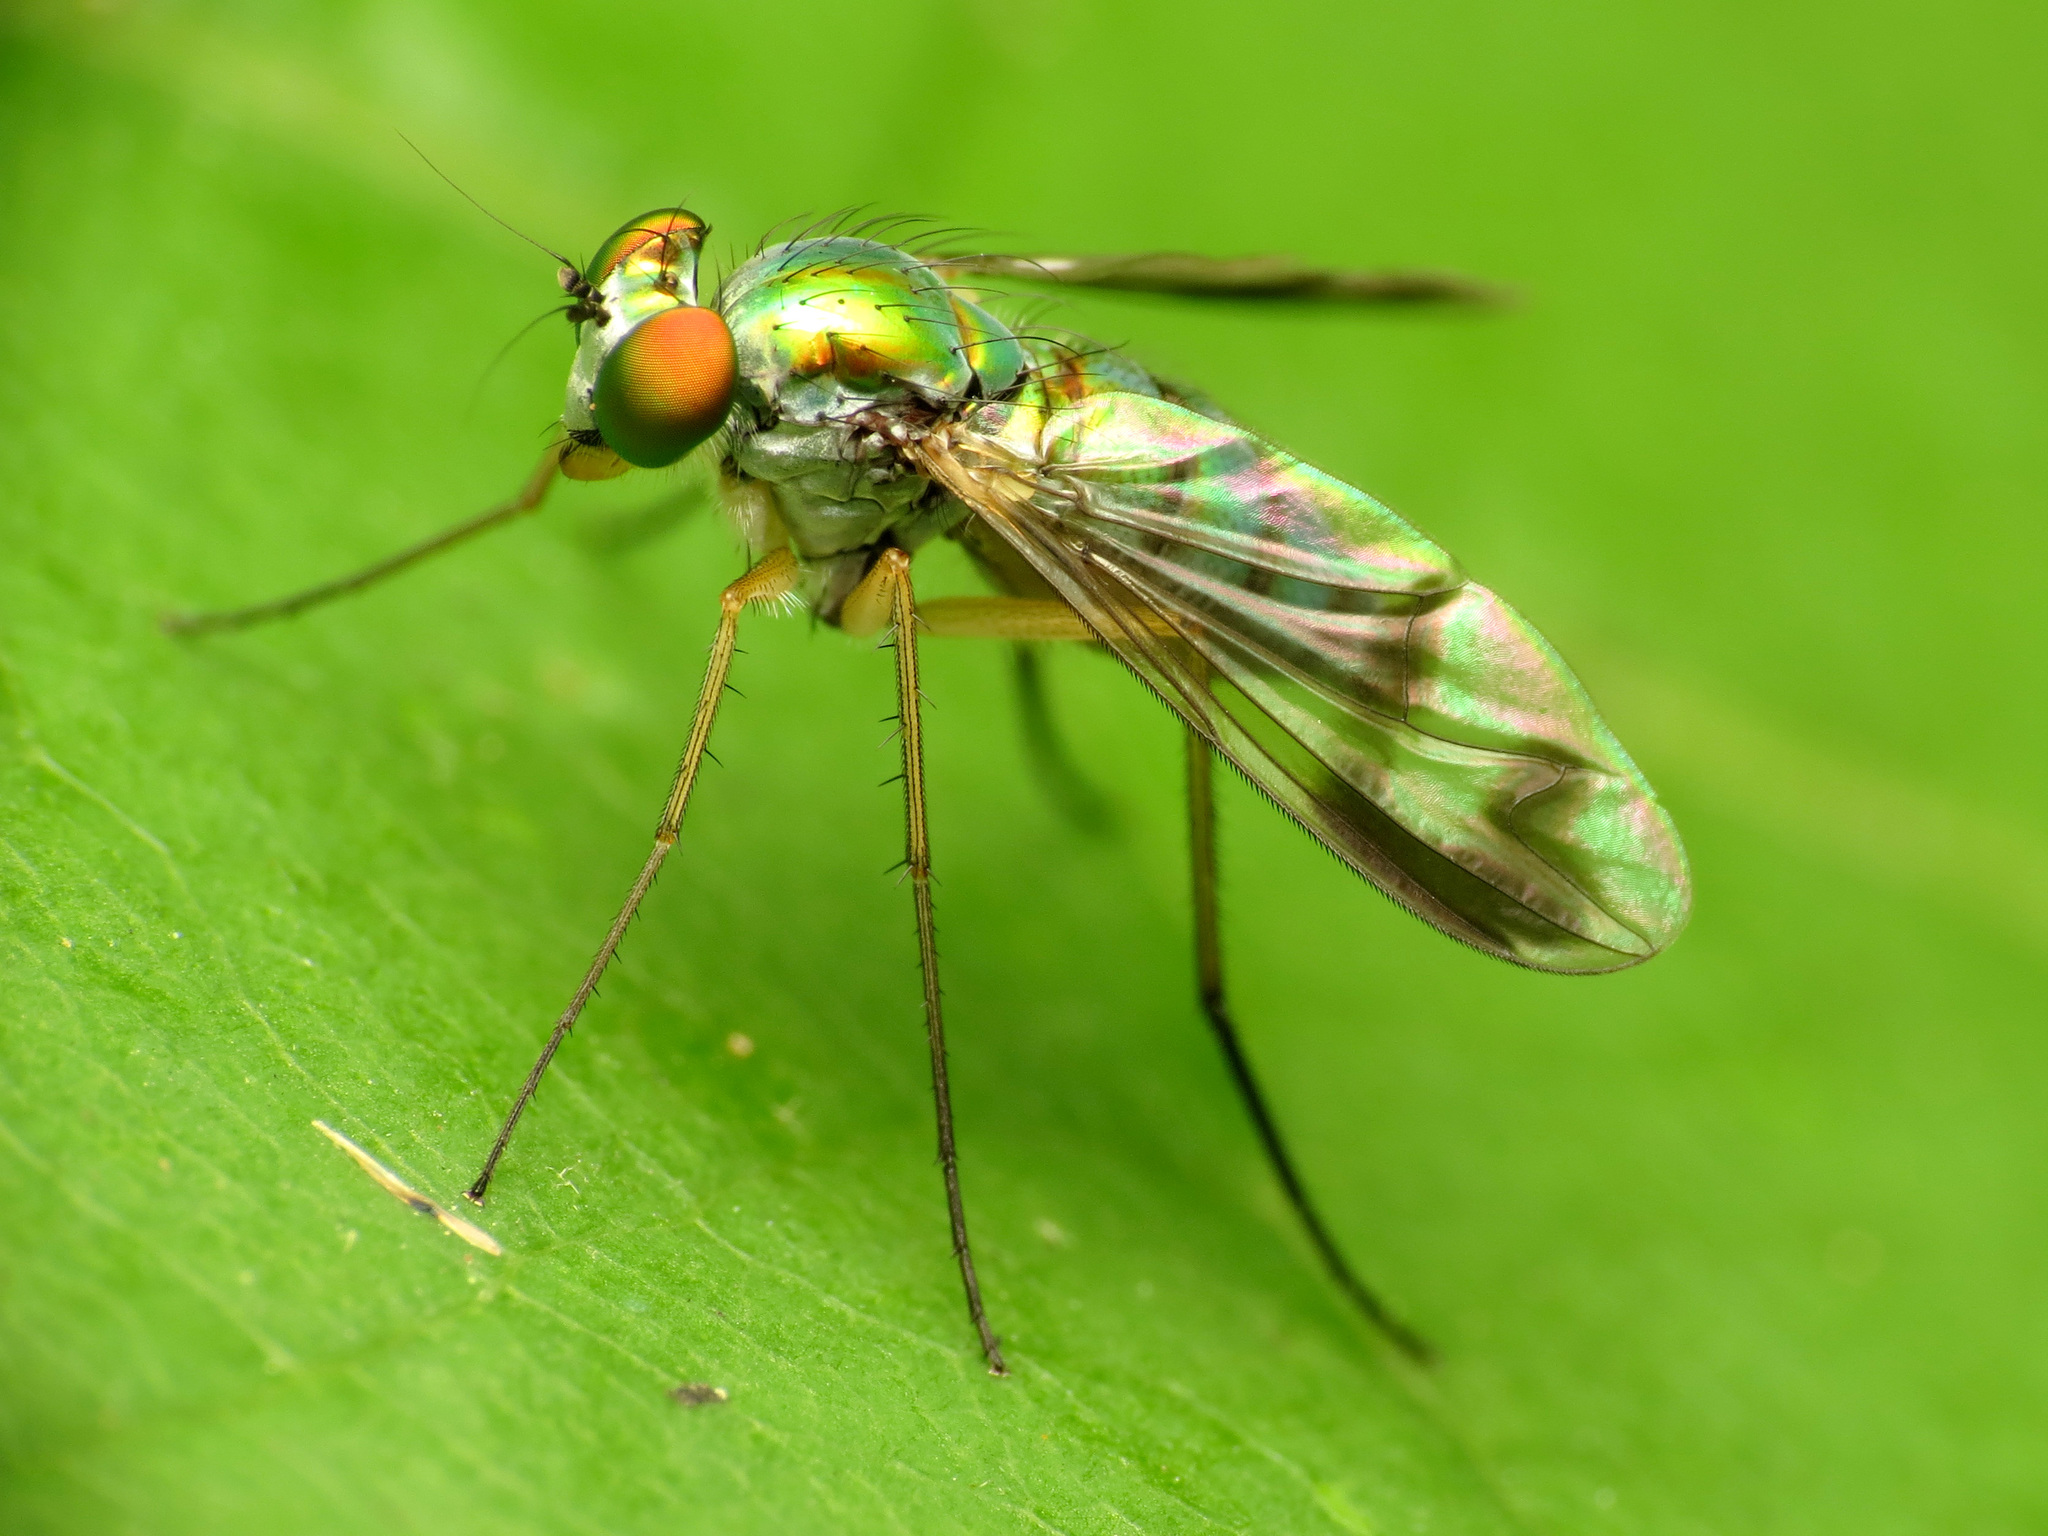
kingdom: Animalia
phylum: Arthropoda
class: Insecta
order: Diptera
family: Dolichopodidae
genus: Condylostylus
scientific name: Condylostylus
